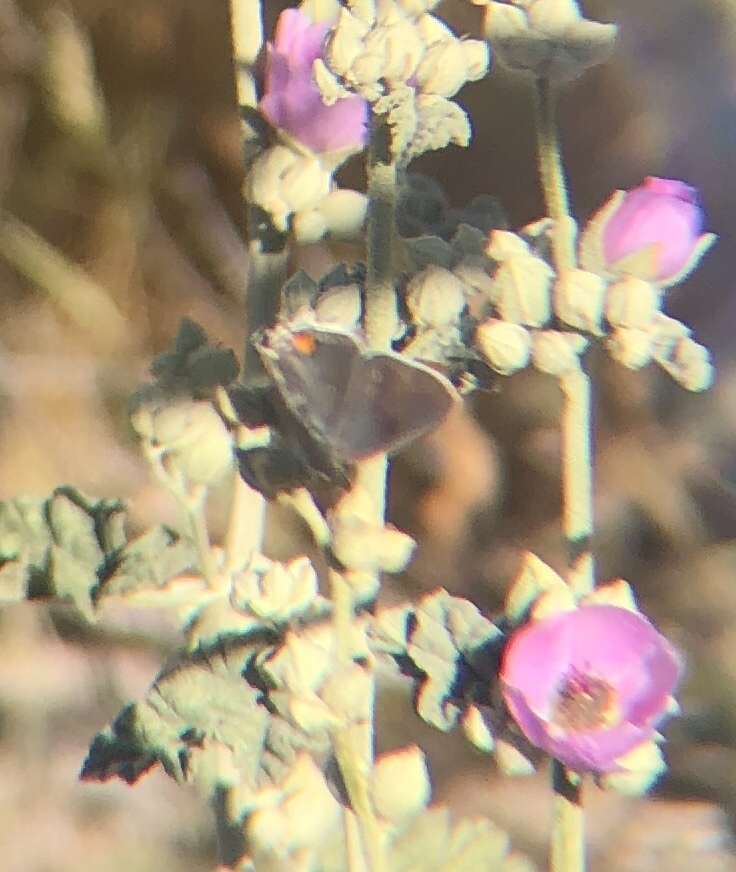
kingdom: Animalia
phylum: Arthropoda
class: Insecta
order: Lepidoptera
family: Lycaenidae
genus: Strymon
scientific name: Strymon melinus
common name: Gray hairstreak
